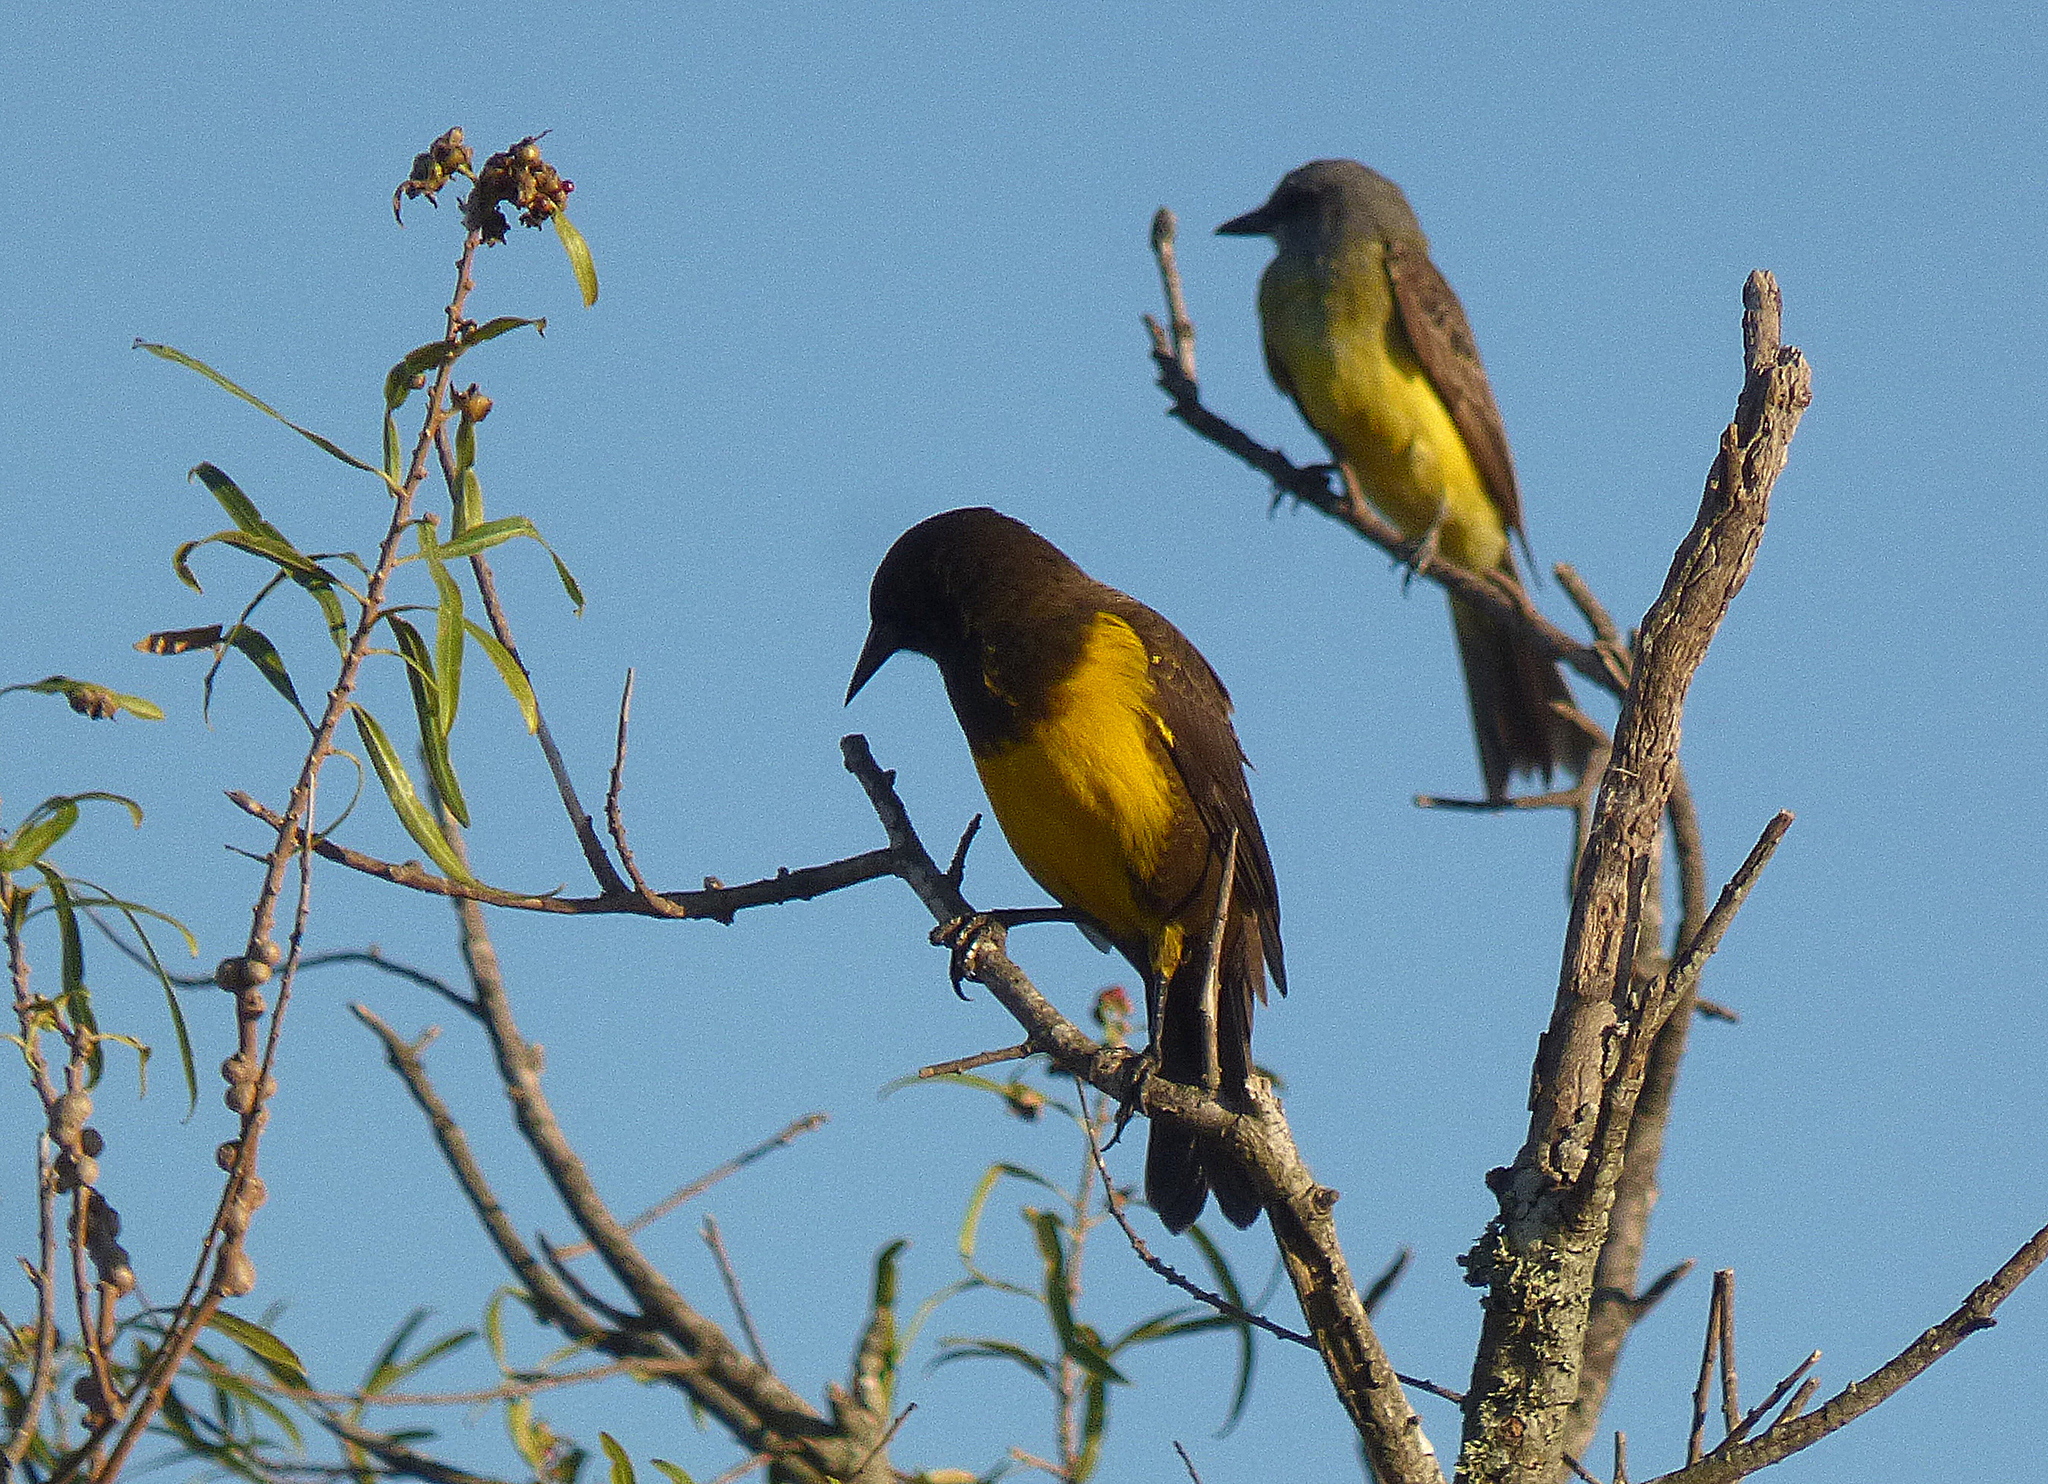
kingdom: Animalia
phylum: Chordata
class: Aves
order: Passeriformes
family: Icteridae
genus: Pseudoleistes
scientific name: Pseudoleistes virescens
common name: Brown-and-yellow marshbird
